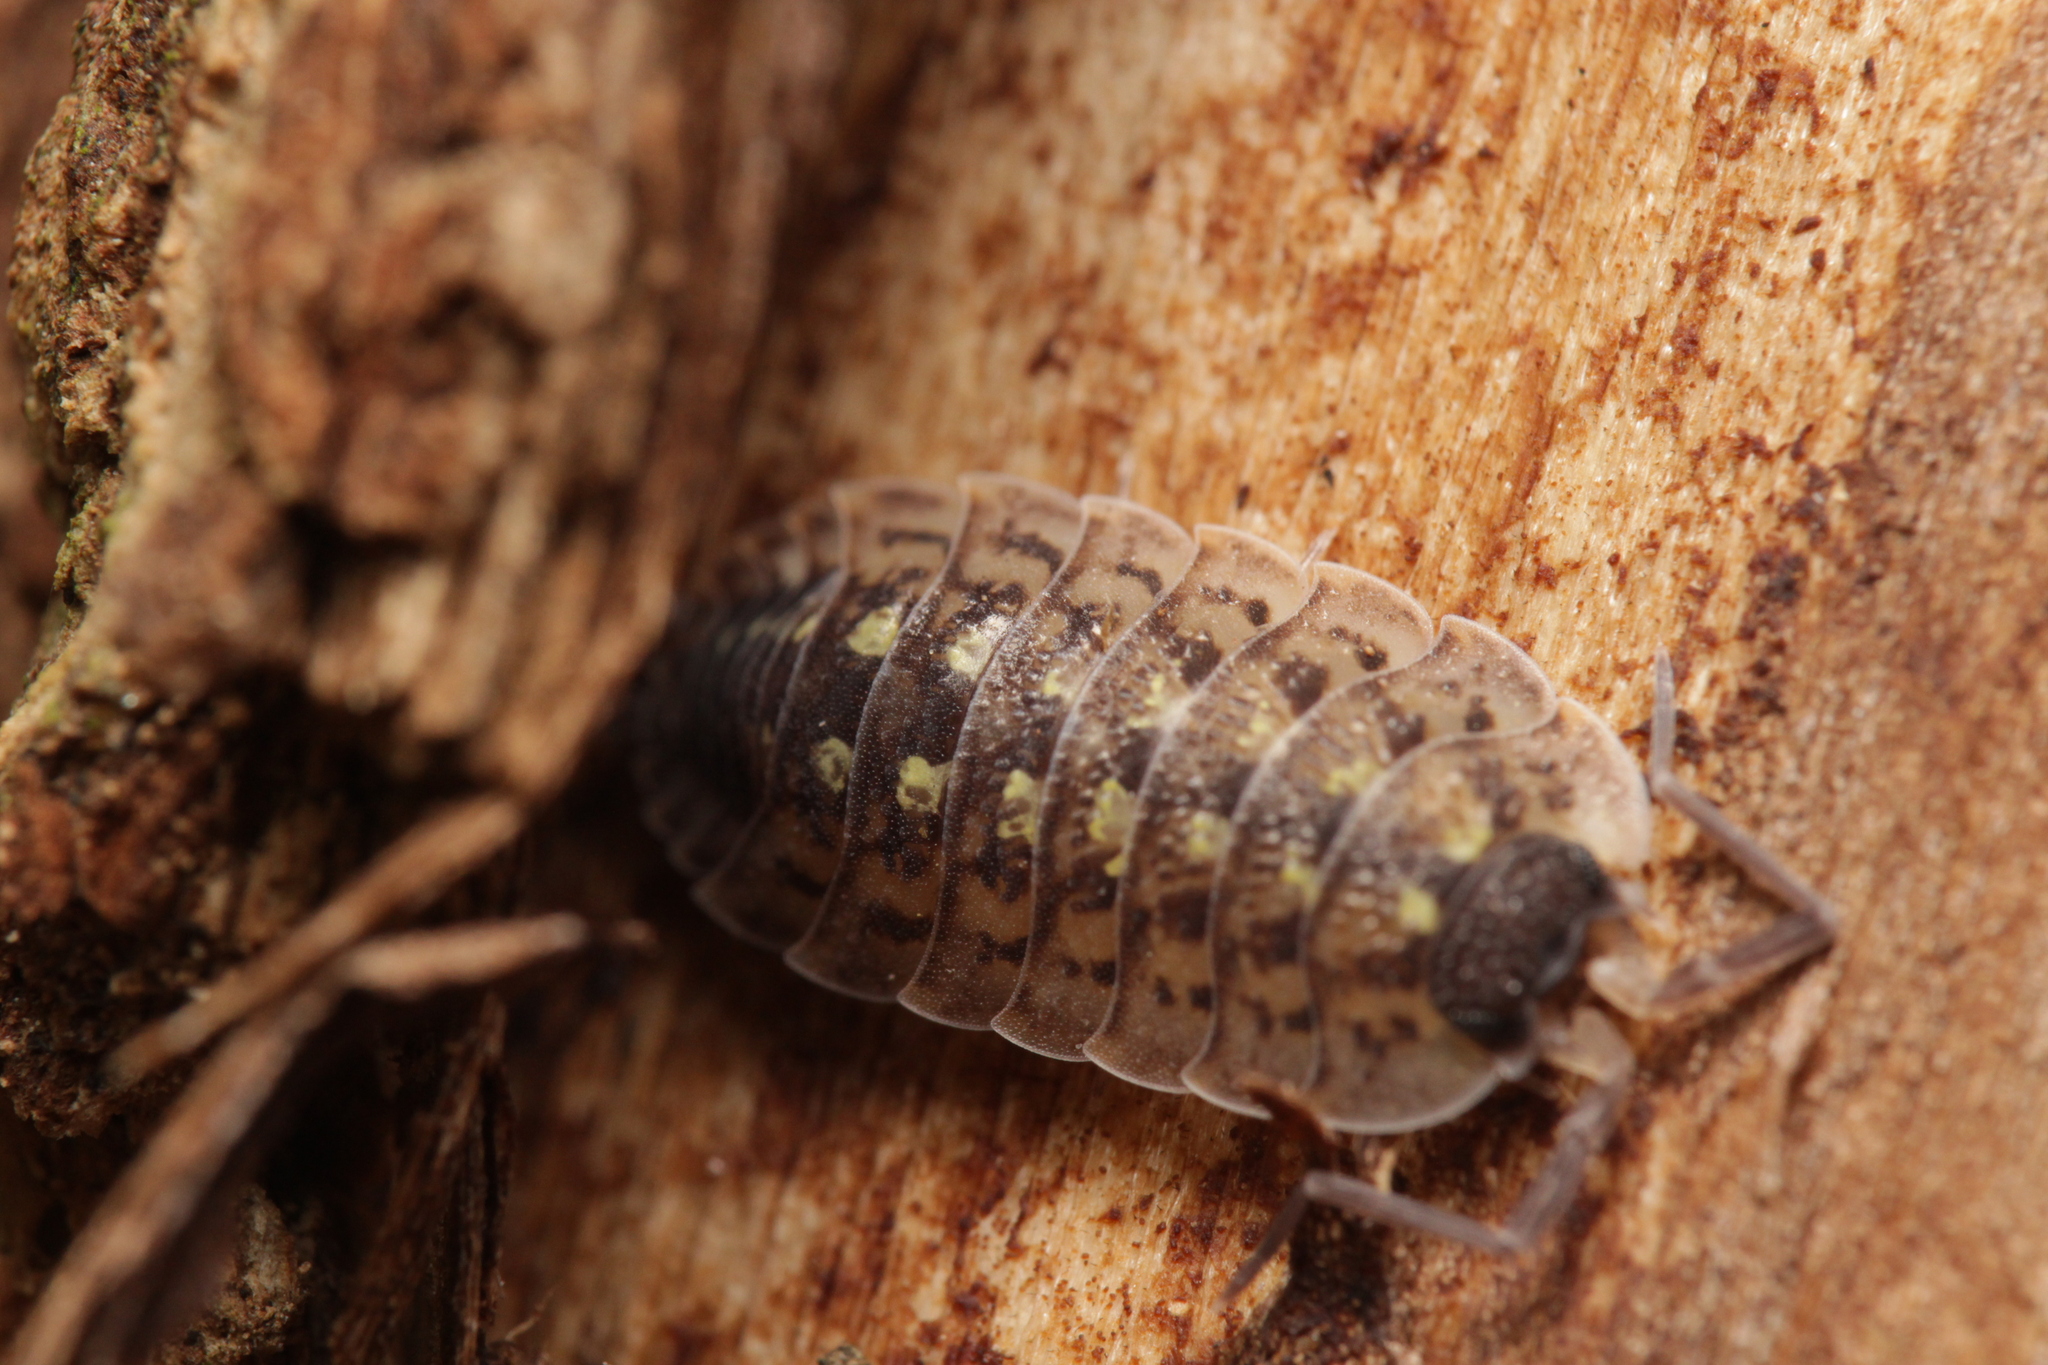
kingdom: Animalia
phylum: Arthropoda
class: Malacostraca
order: Isopoda
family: Porcellionidae
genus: Porcellio
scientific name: Porcellio spinicornis
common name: Painted woodlouse
